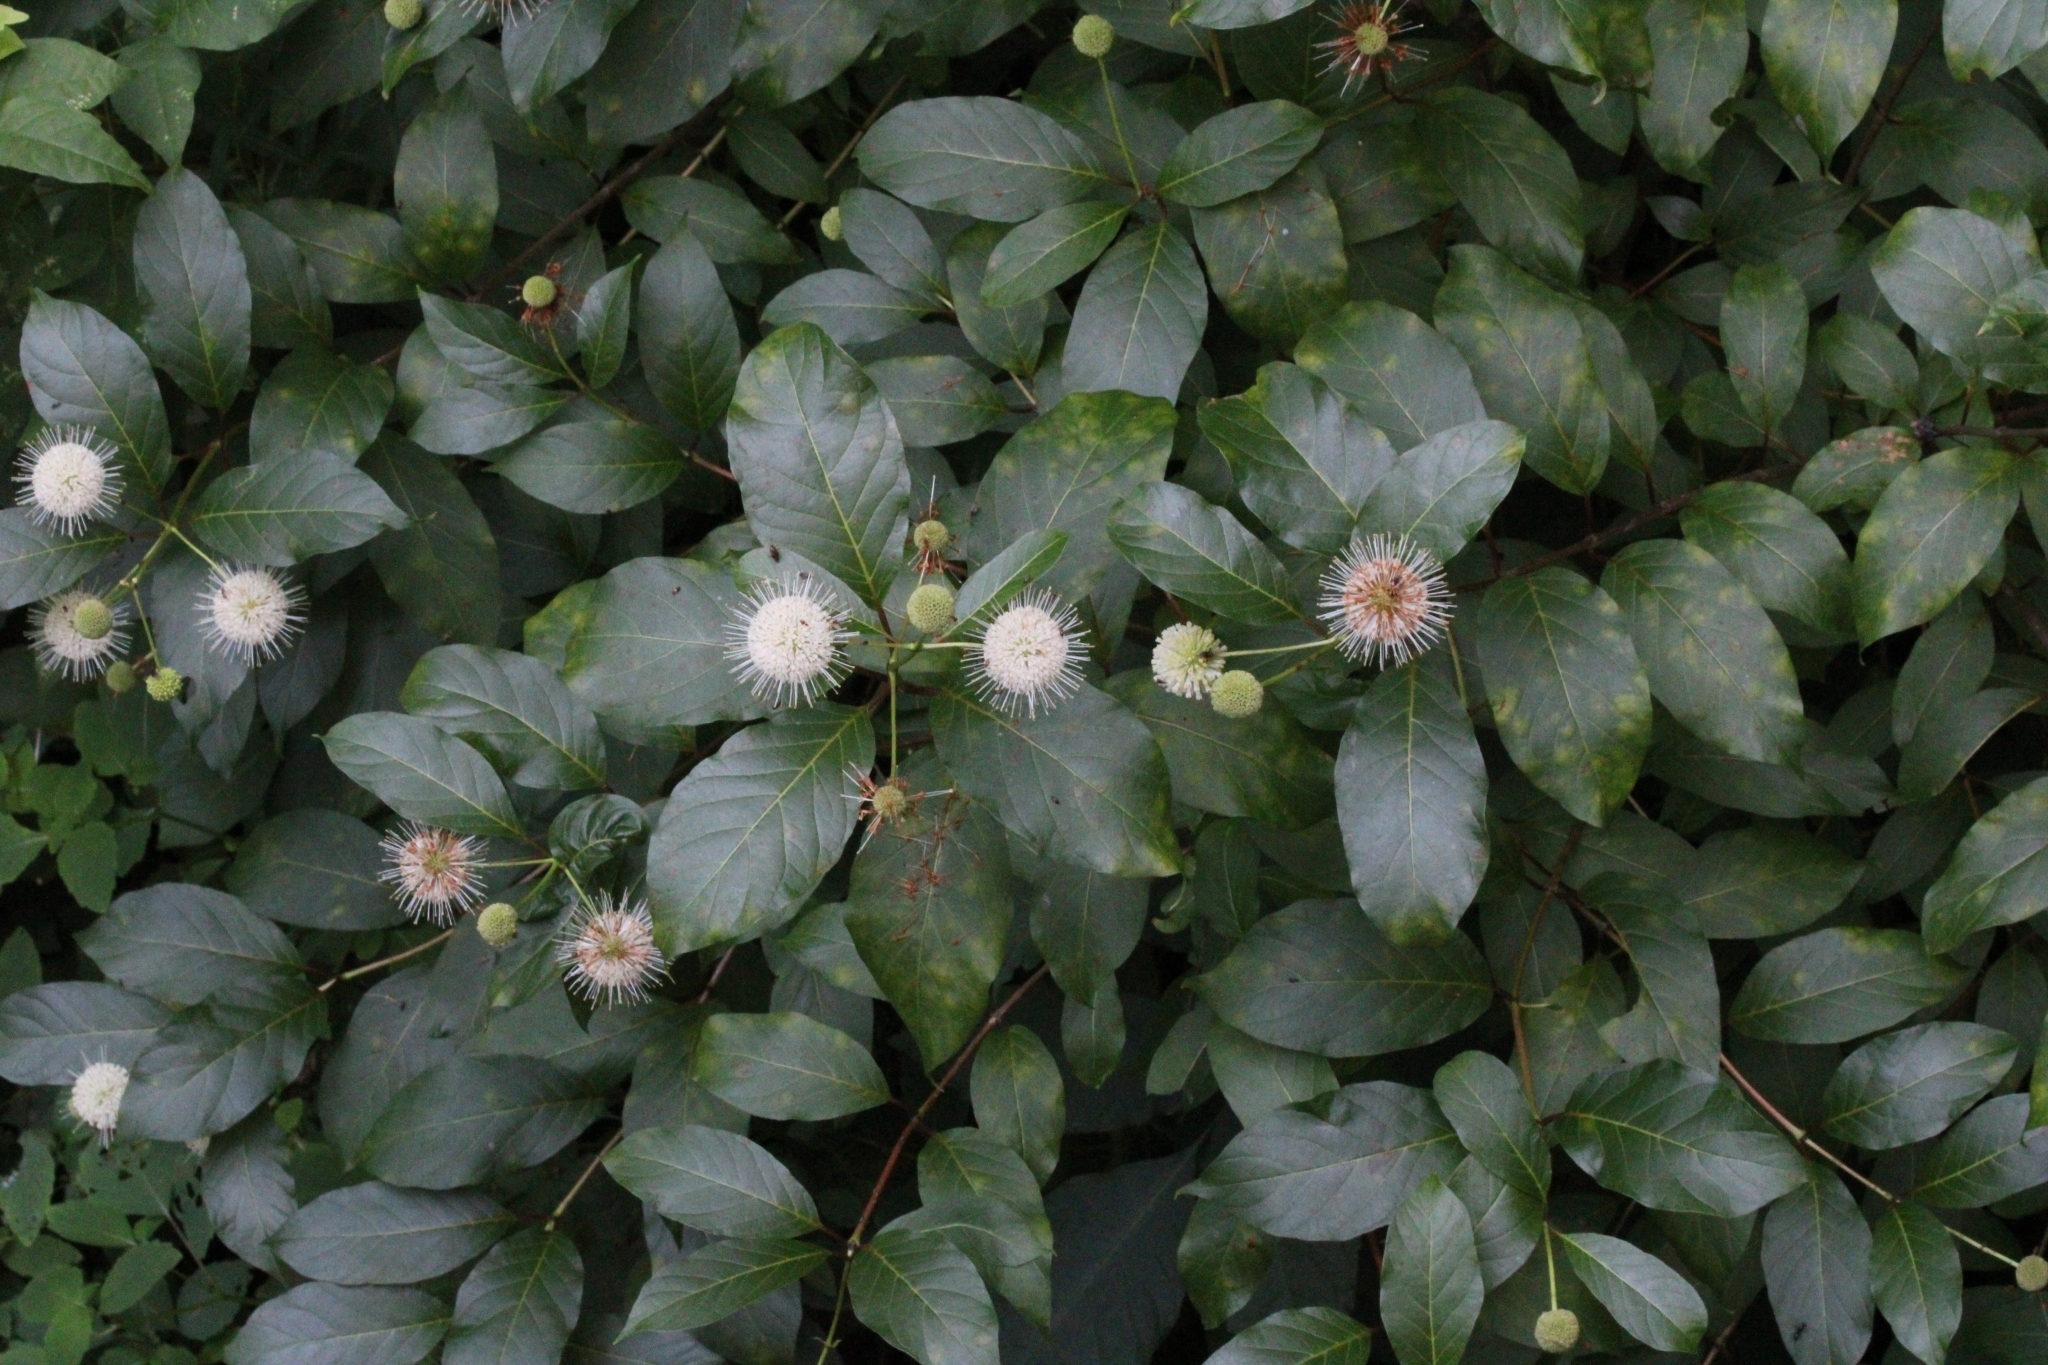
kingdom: Plantae
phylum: Tracheophyta
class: Magnoliopsida
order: Gentianales
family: Rubiaceae
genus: Cephalanthus
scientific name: Cephalanthus occidentalis
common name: Button-willow
